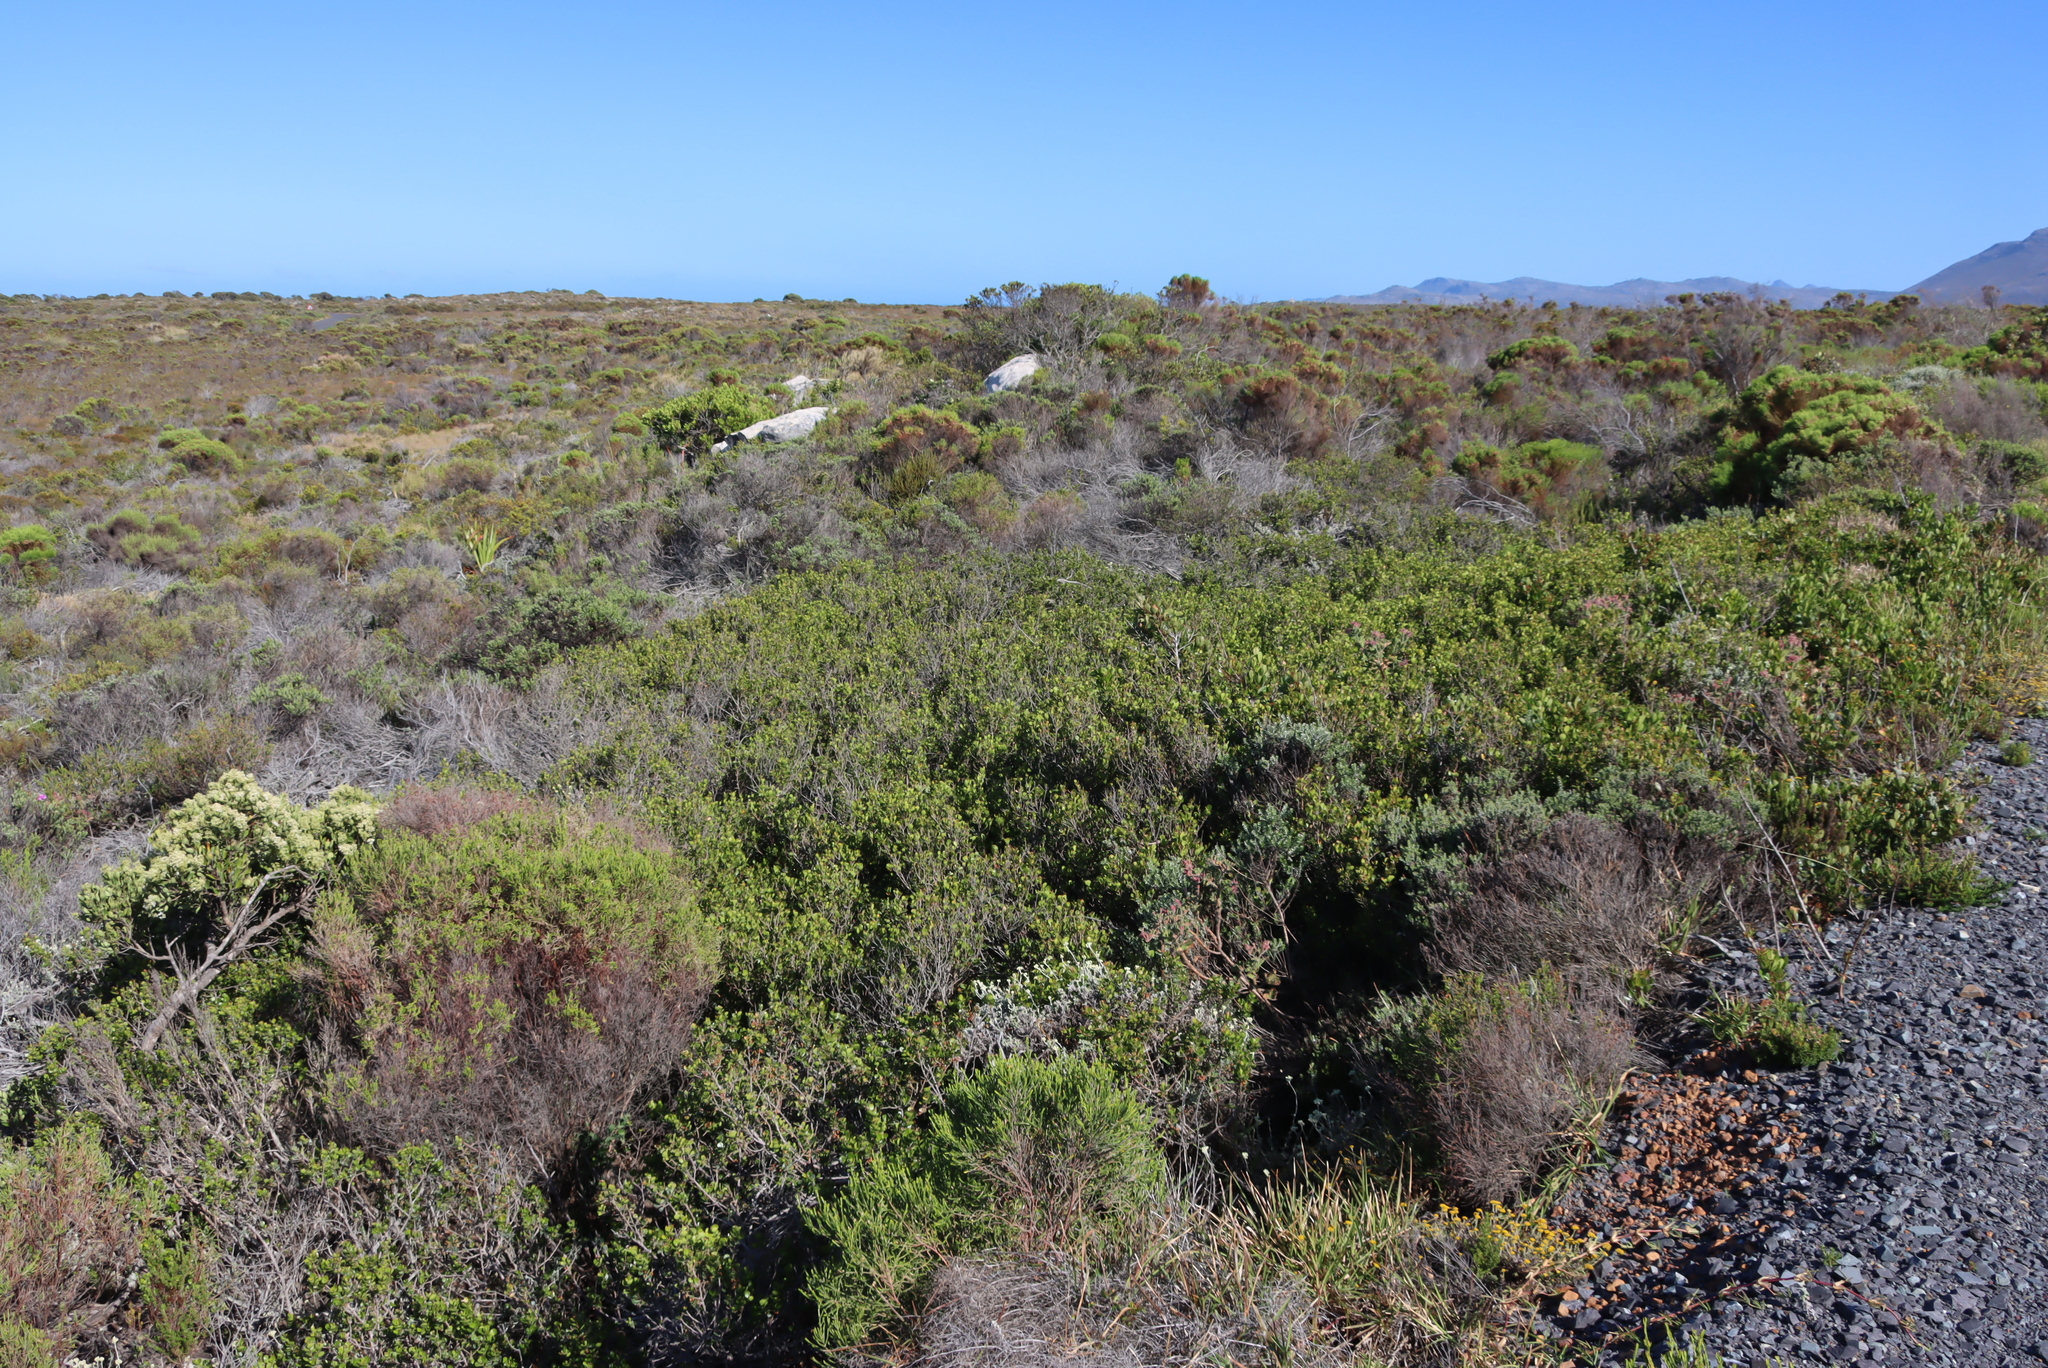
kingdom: Plantae
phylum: Tracheophyta
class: Magnoliopsida
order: Sapindales
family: Anacardiaceae
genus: Searsia
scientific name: Searsia lucida
